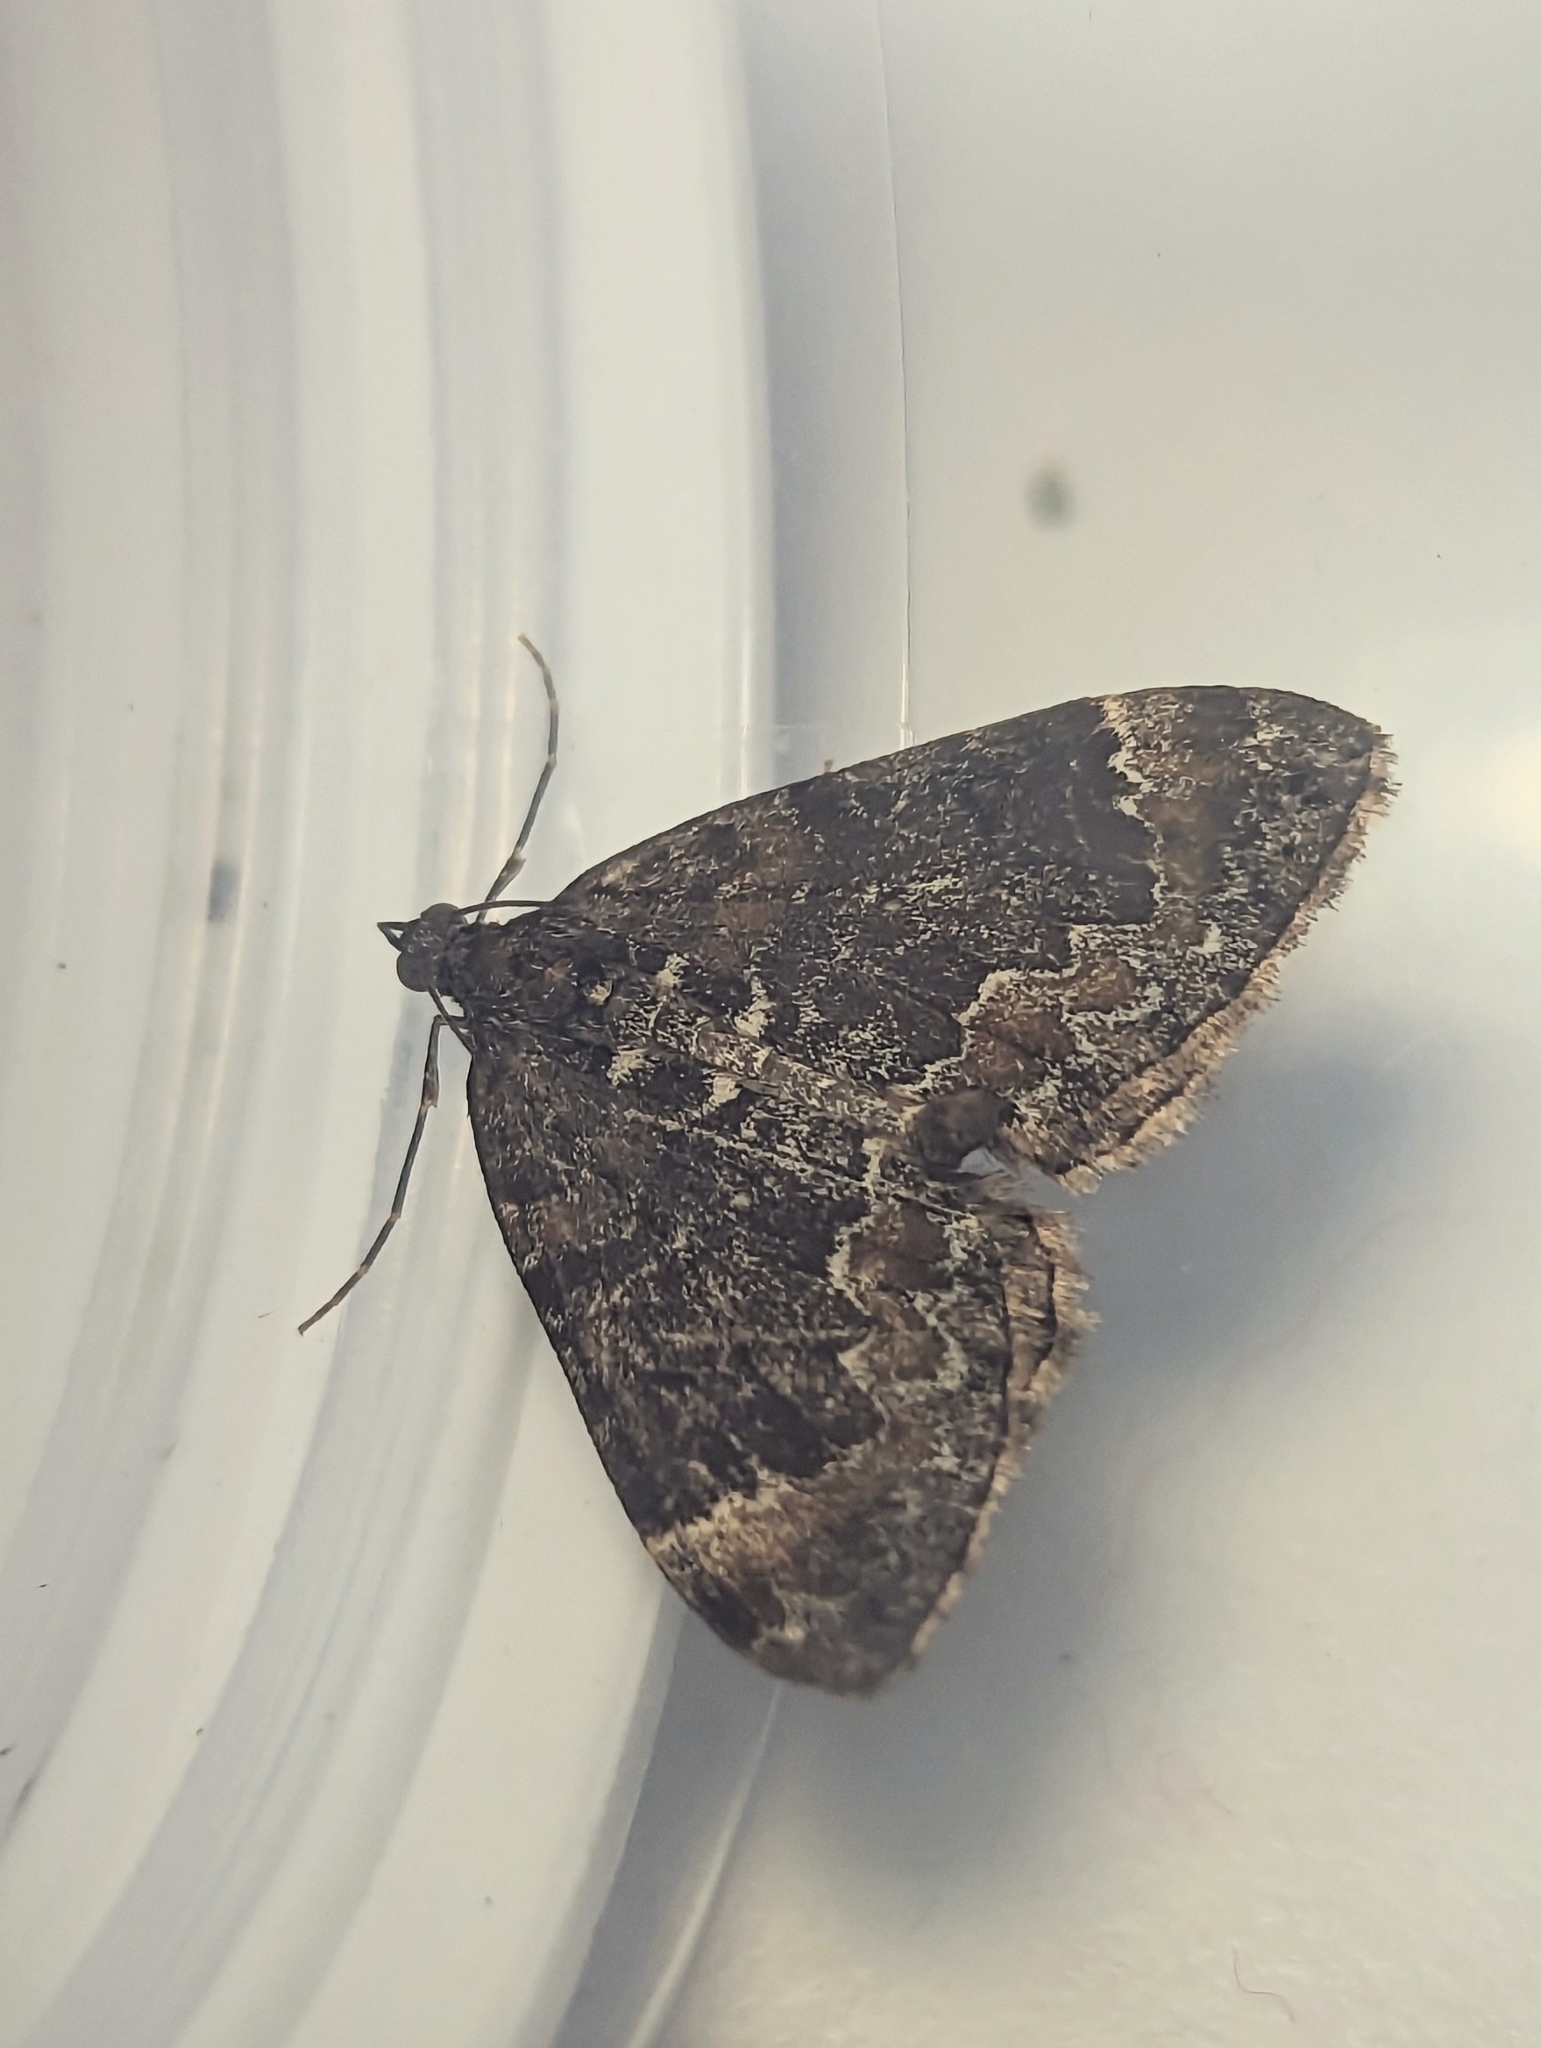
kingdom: Animalia
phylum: Arthropoda
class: Insecta
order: Lepidoptera
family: Geometridae
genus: Dysstroma
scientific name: Dysstroma truncata
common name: Common marbled carpet
